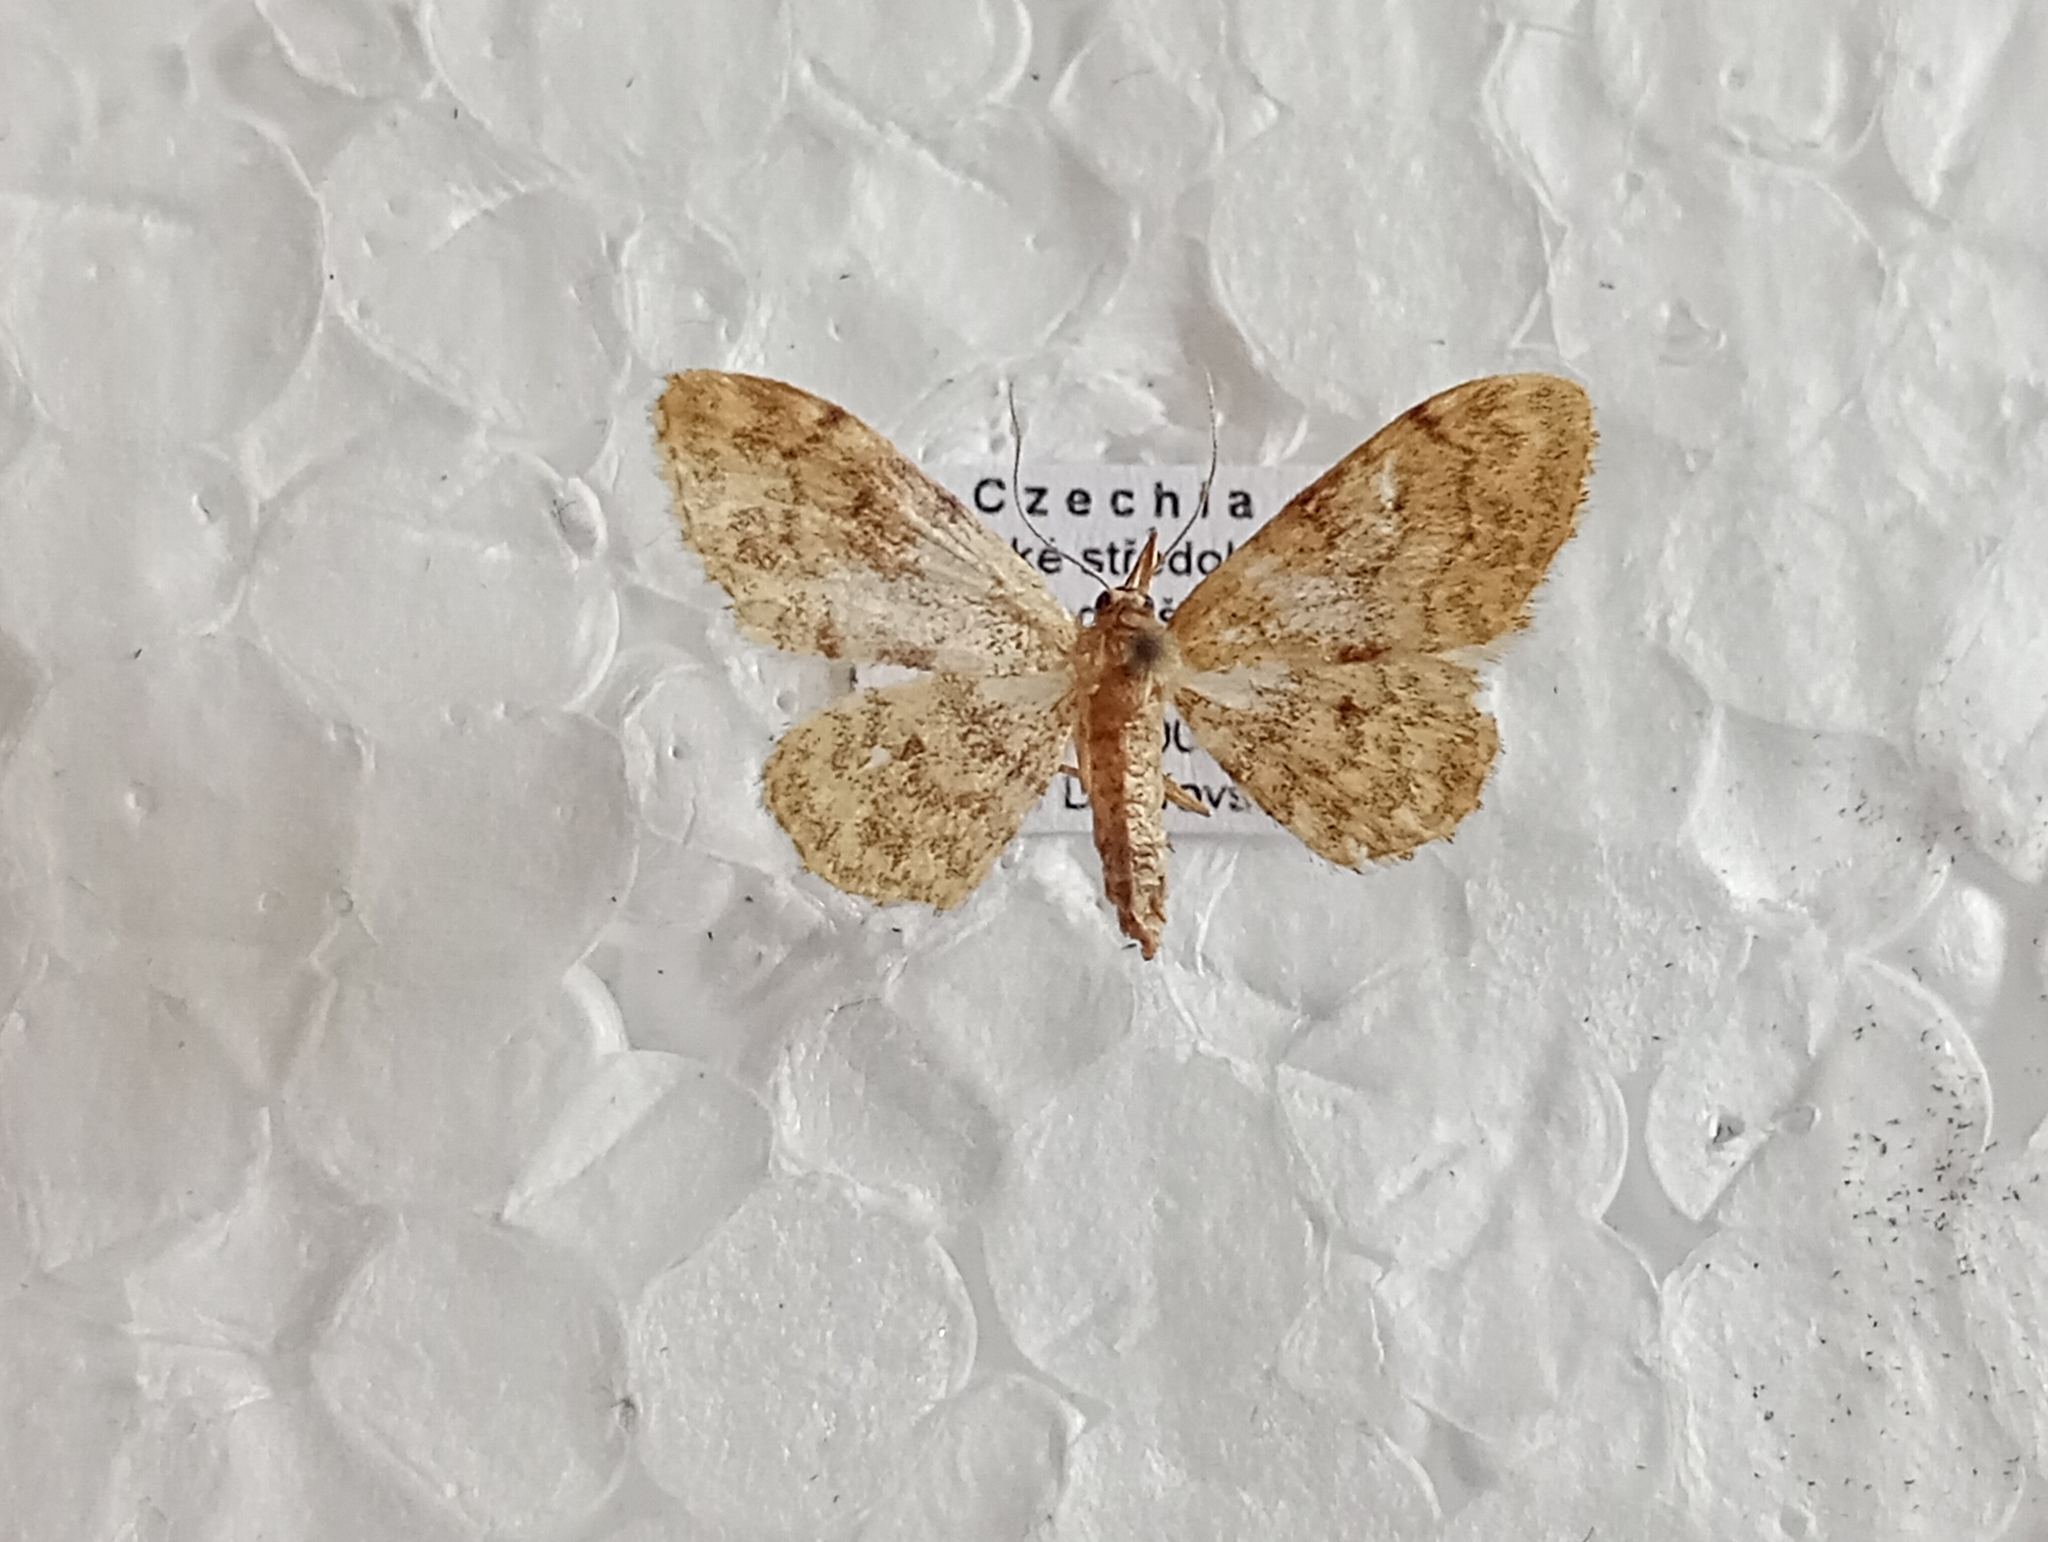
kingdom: Animalia
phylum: Arthropoda
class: Insecta
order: Lepidoptera
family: Geometridae
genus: Idaea
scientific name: Idaea inquinata
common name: Rusty wave
